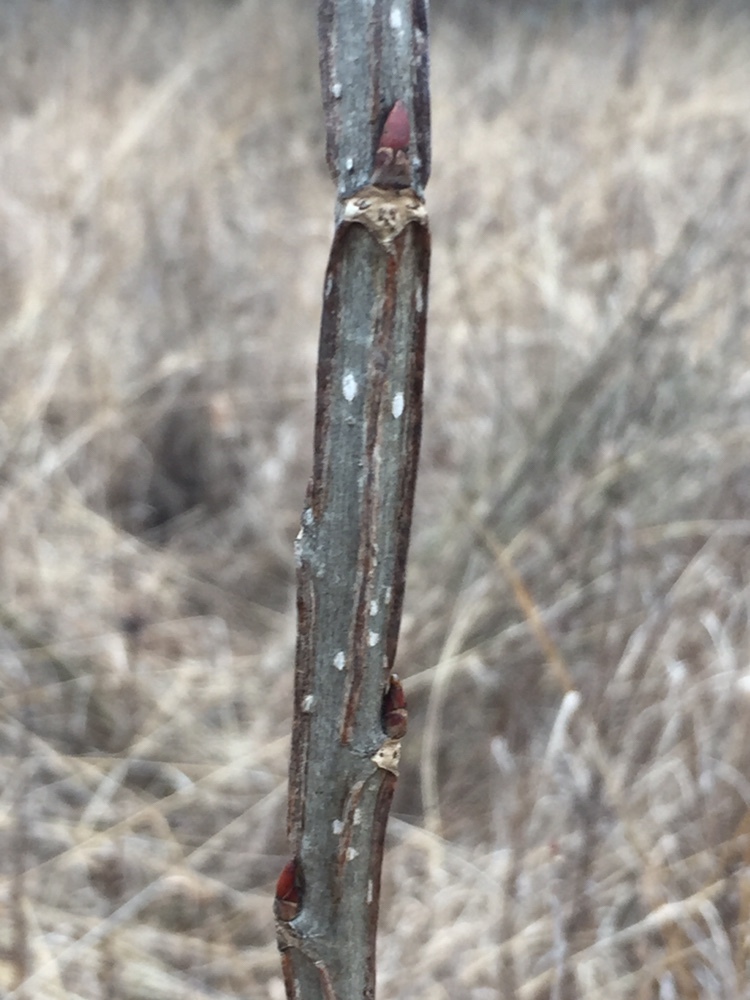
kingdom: Plantae
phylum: Tracheophyta
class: Magnoliopsida
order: Lamiales
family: Oleaceae
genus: Fraxinus
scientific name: Fraxinus quadrangulata
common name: Blue ash
